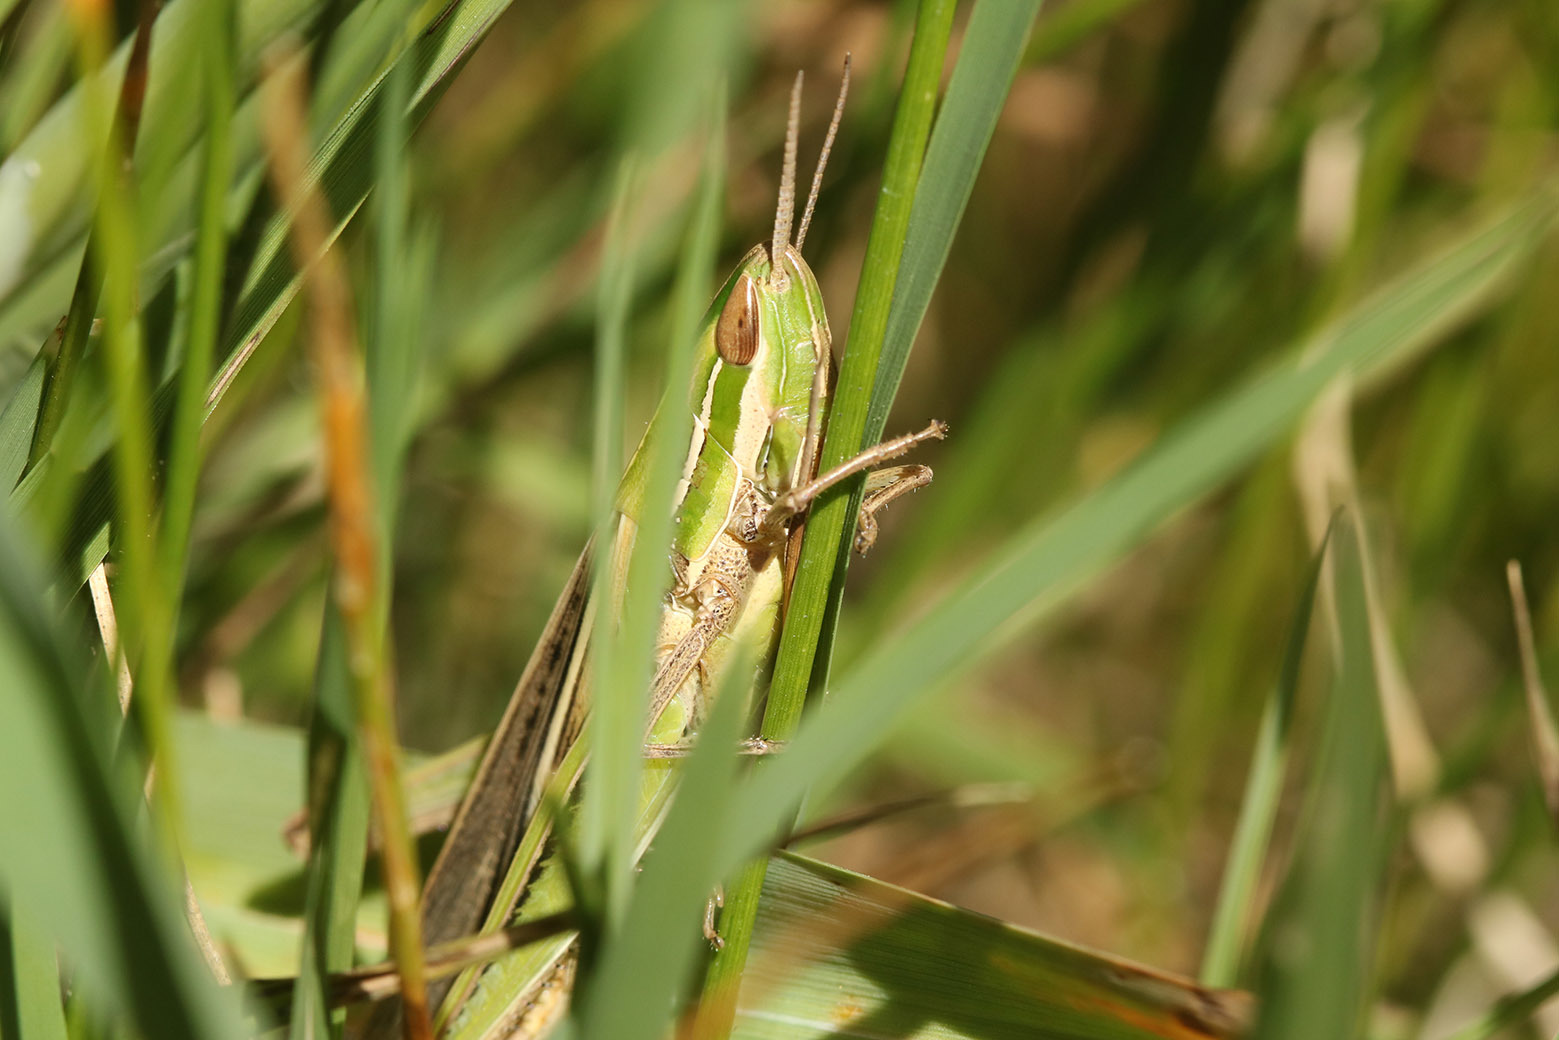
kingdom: Animalia
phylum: Arthropoda
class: Insecta
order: Orthoptera
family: Acrididae
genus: Sinipta
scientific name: Sinipta dalmani
